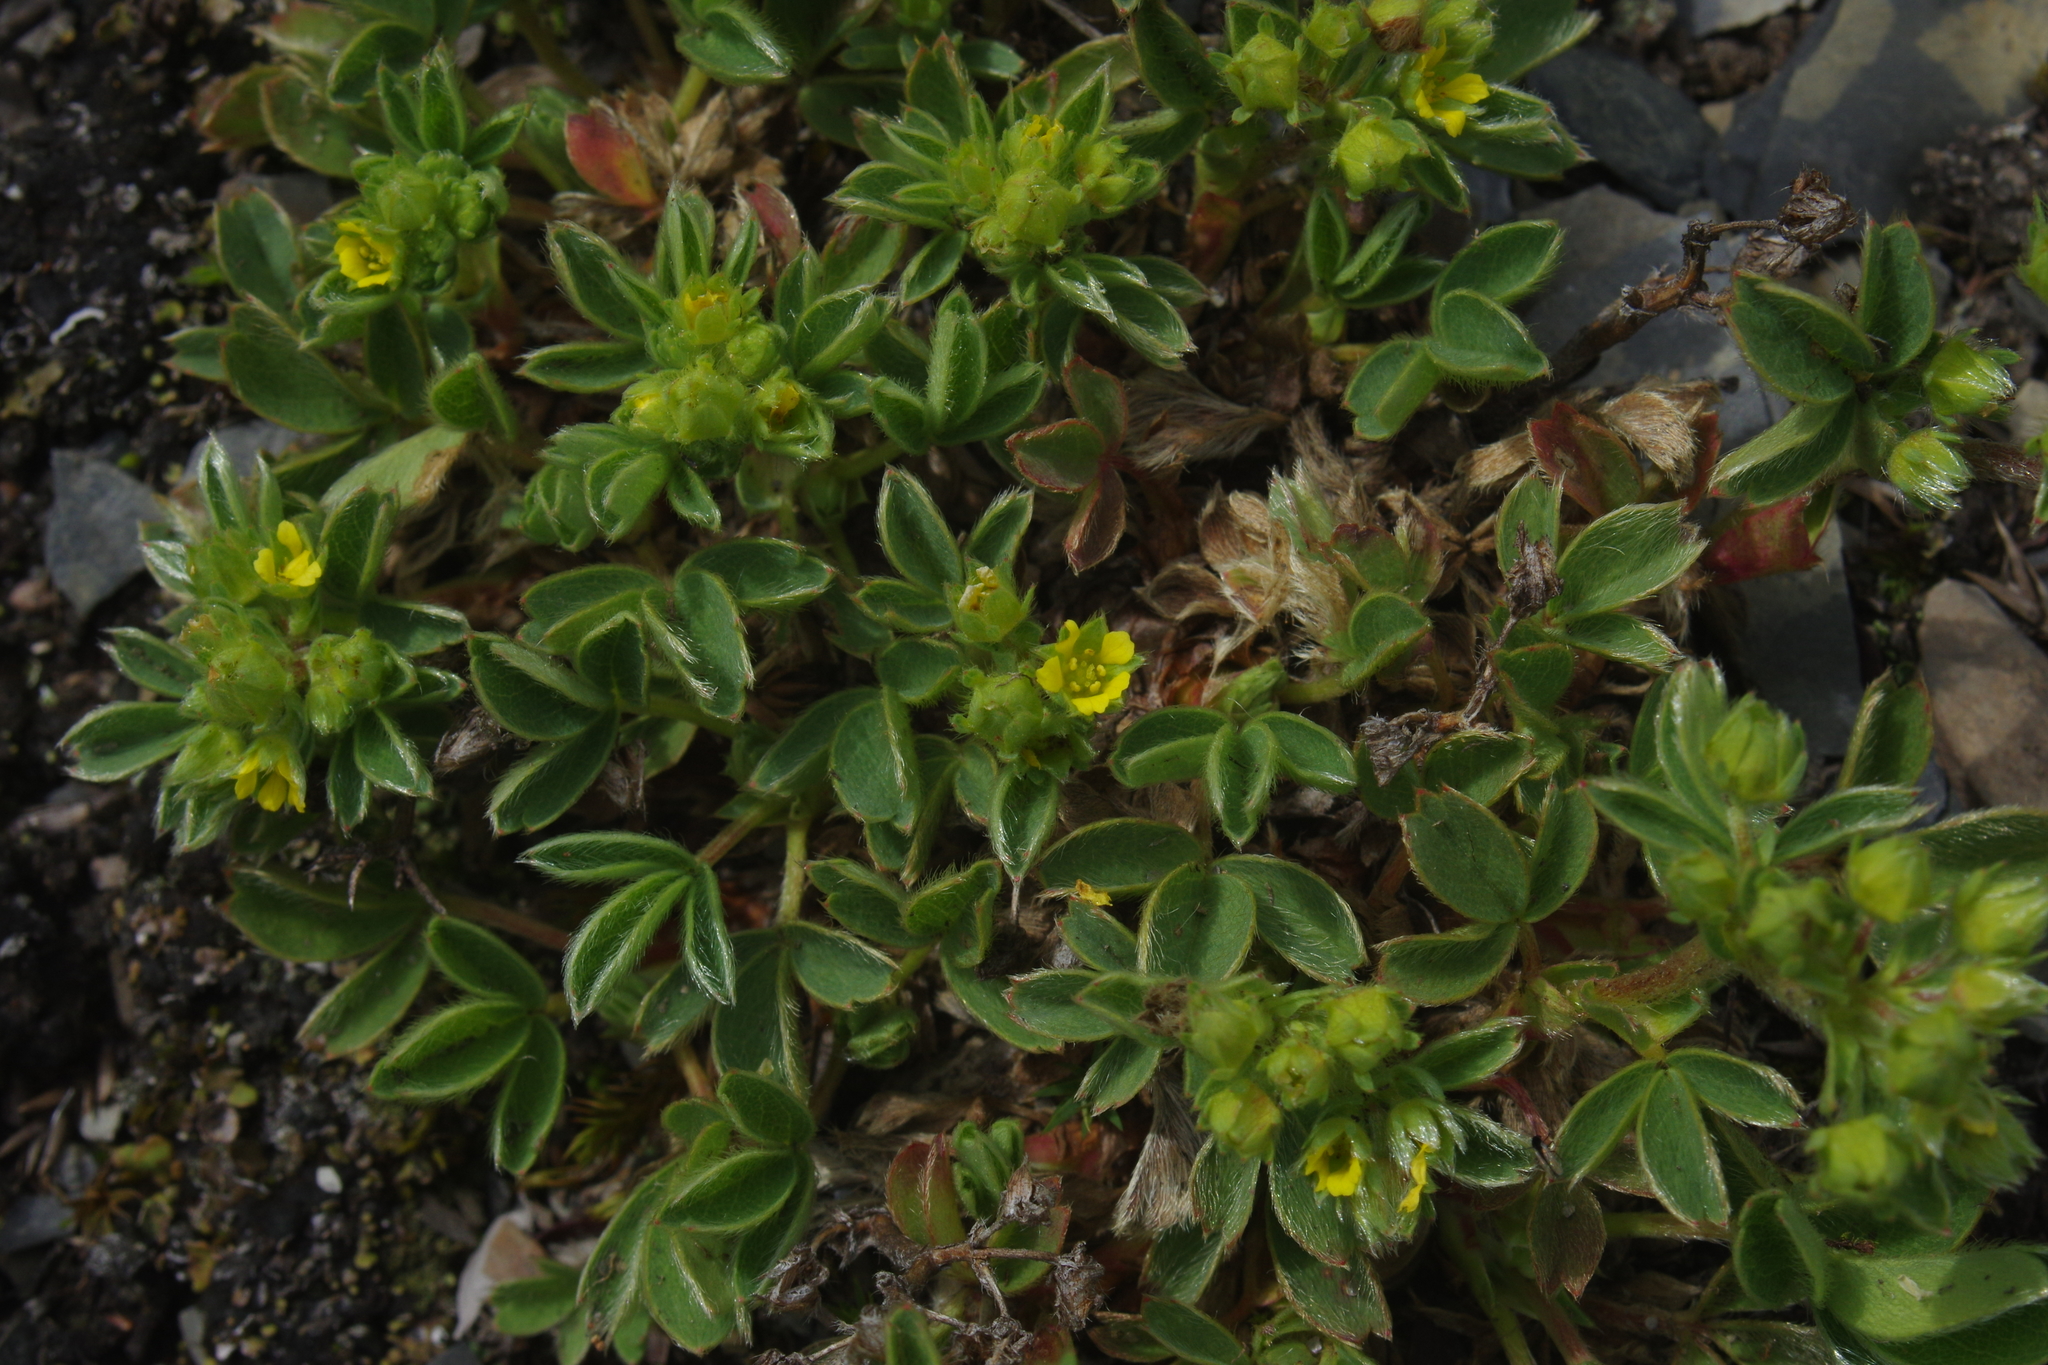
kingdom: Plantae
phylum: Tracheophyta
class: Magnoliopsida
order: Rosales
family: Rosaceae
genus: Sibbaldia
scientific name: Sibbaldia procumbens
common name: Creeping sibbaldia
